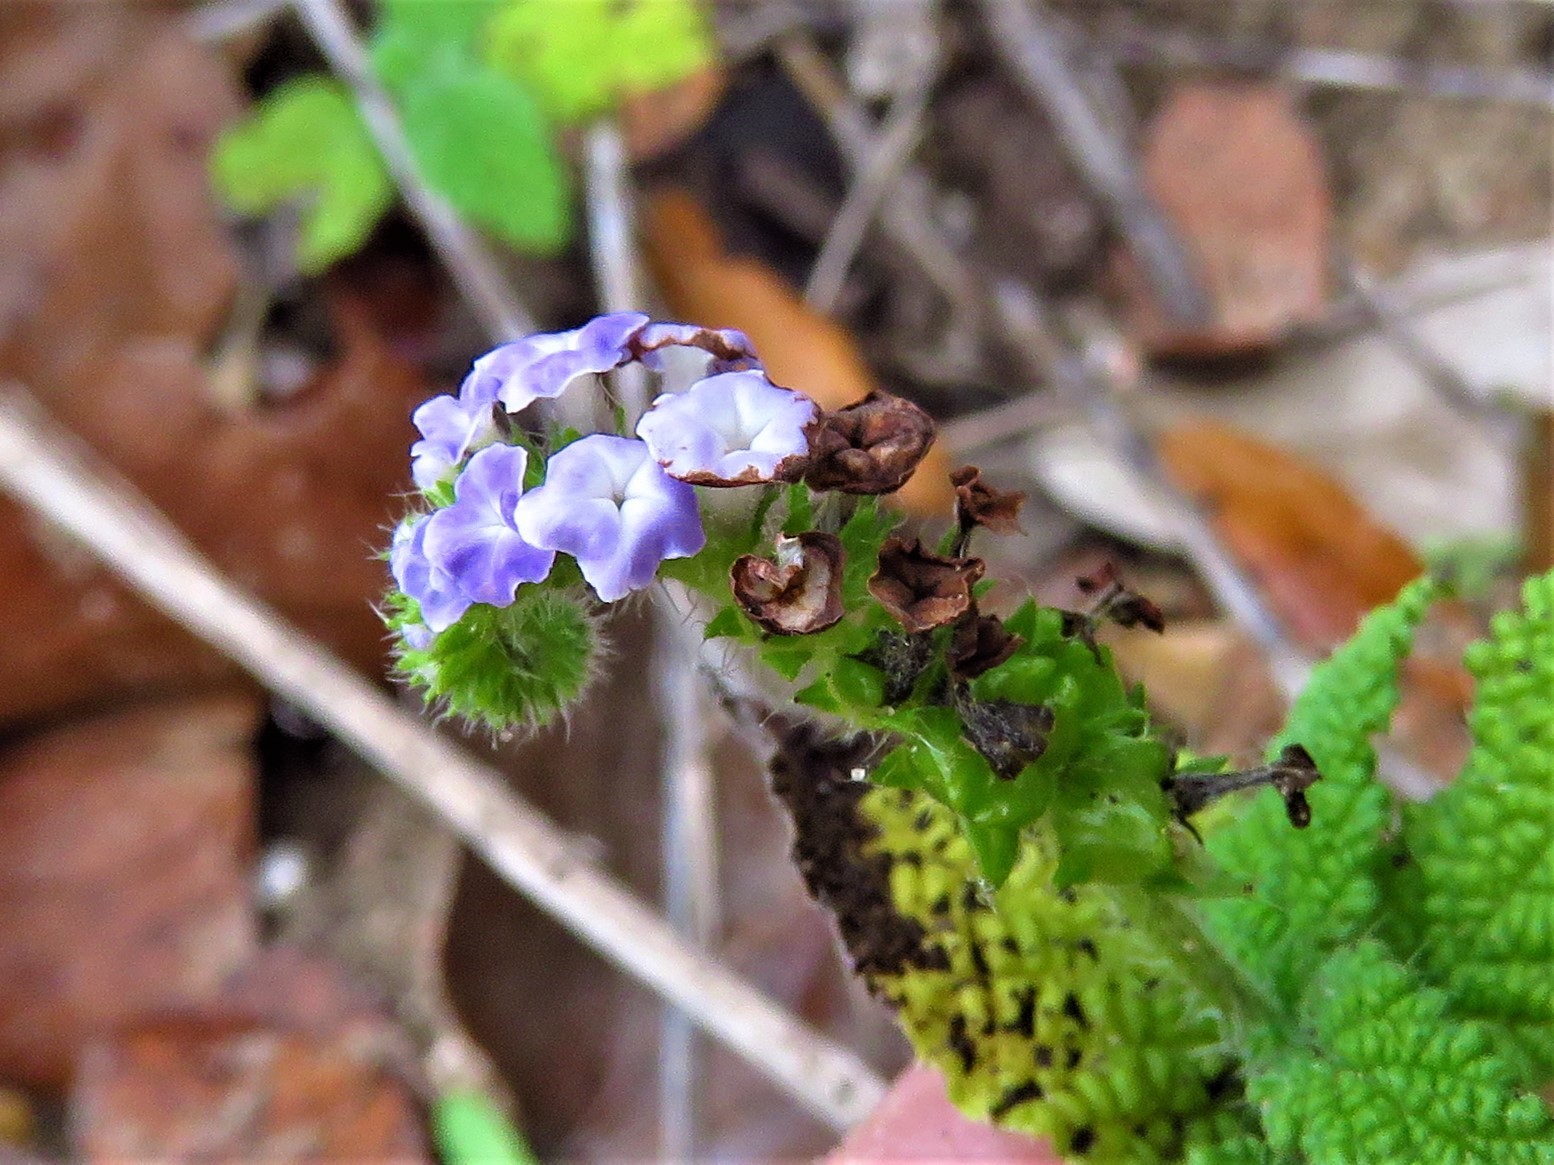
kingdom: Plantae
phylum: Tracheophyta
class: Magnoliopsida
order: Boraginales
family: Heliotropiaceae
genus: Heliotropium
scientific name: Heliotropium indicum
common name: Indian heliotrope
